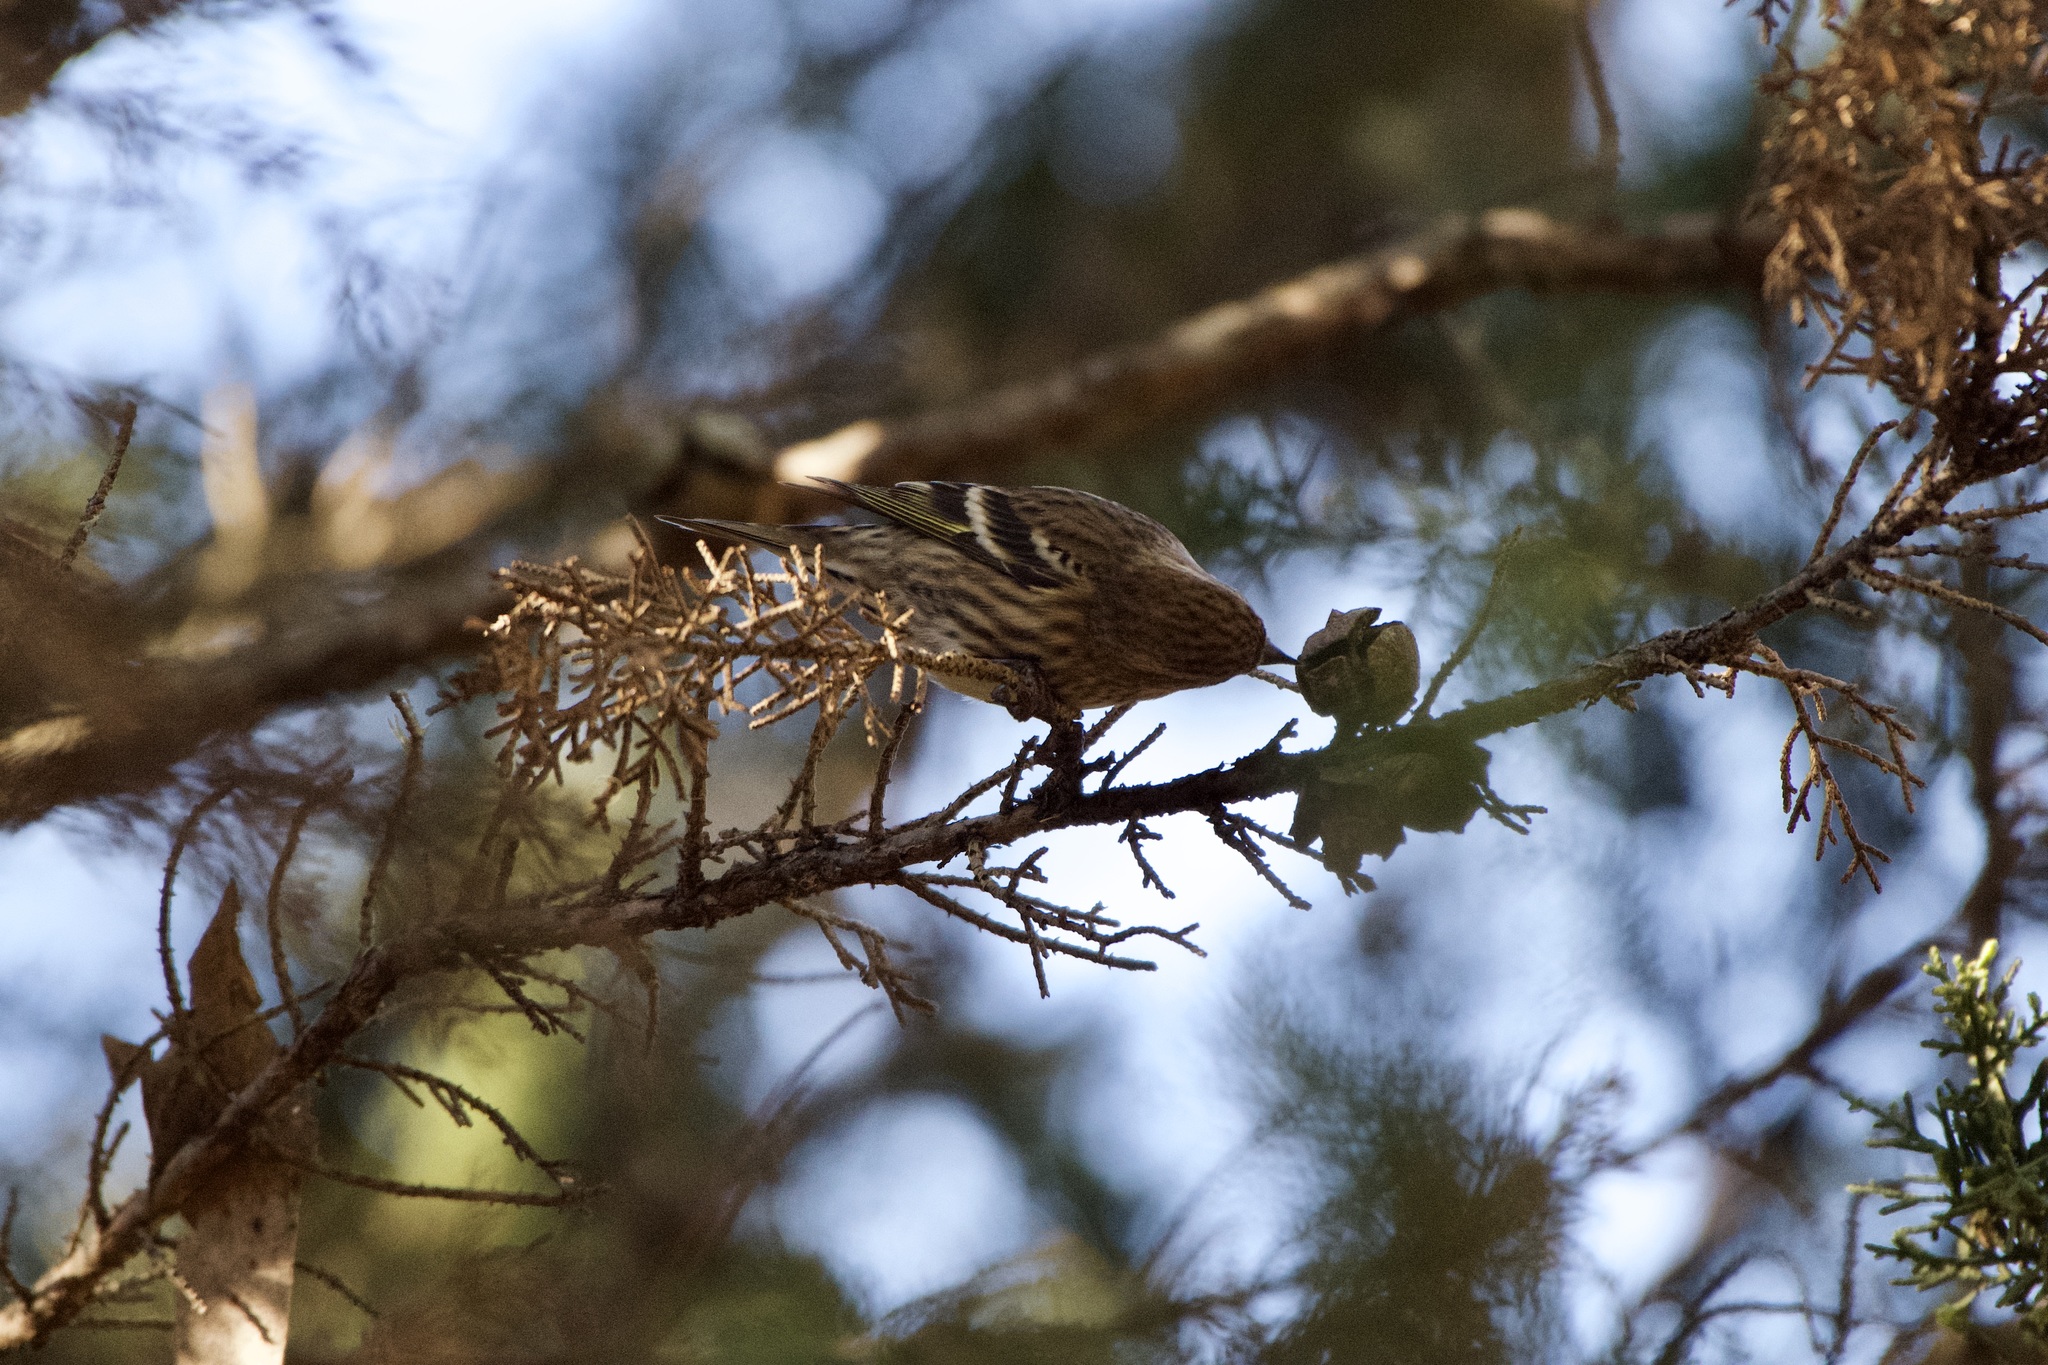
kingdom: Animalia
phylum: Chordata
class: Aves
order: Passeriformes
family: Fringillidae
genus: Spinus
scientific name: Spinus pinus
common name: Pine siskin
